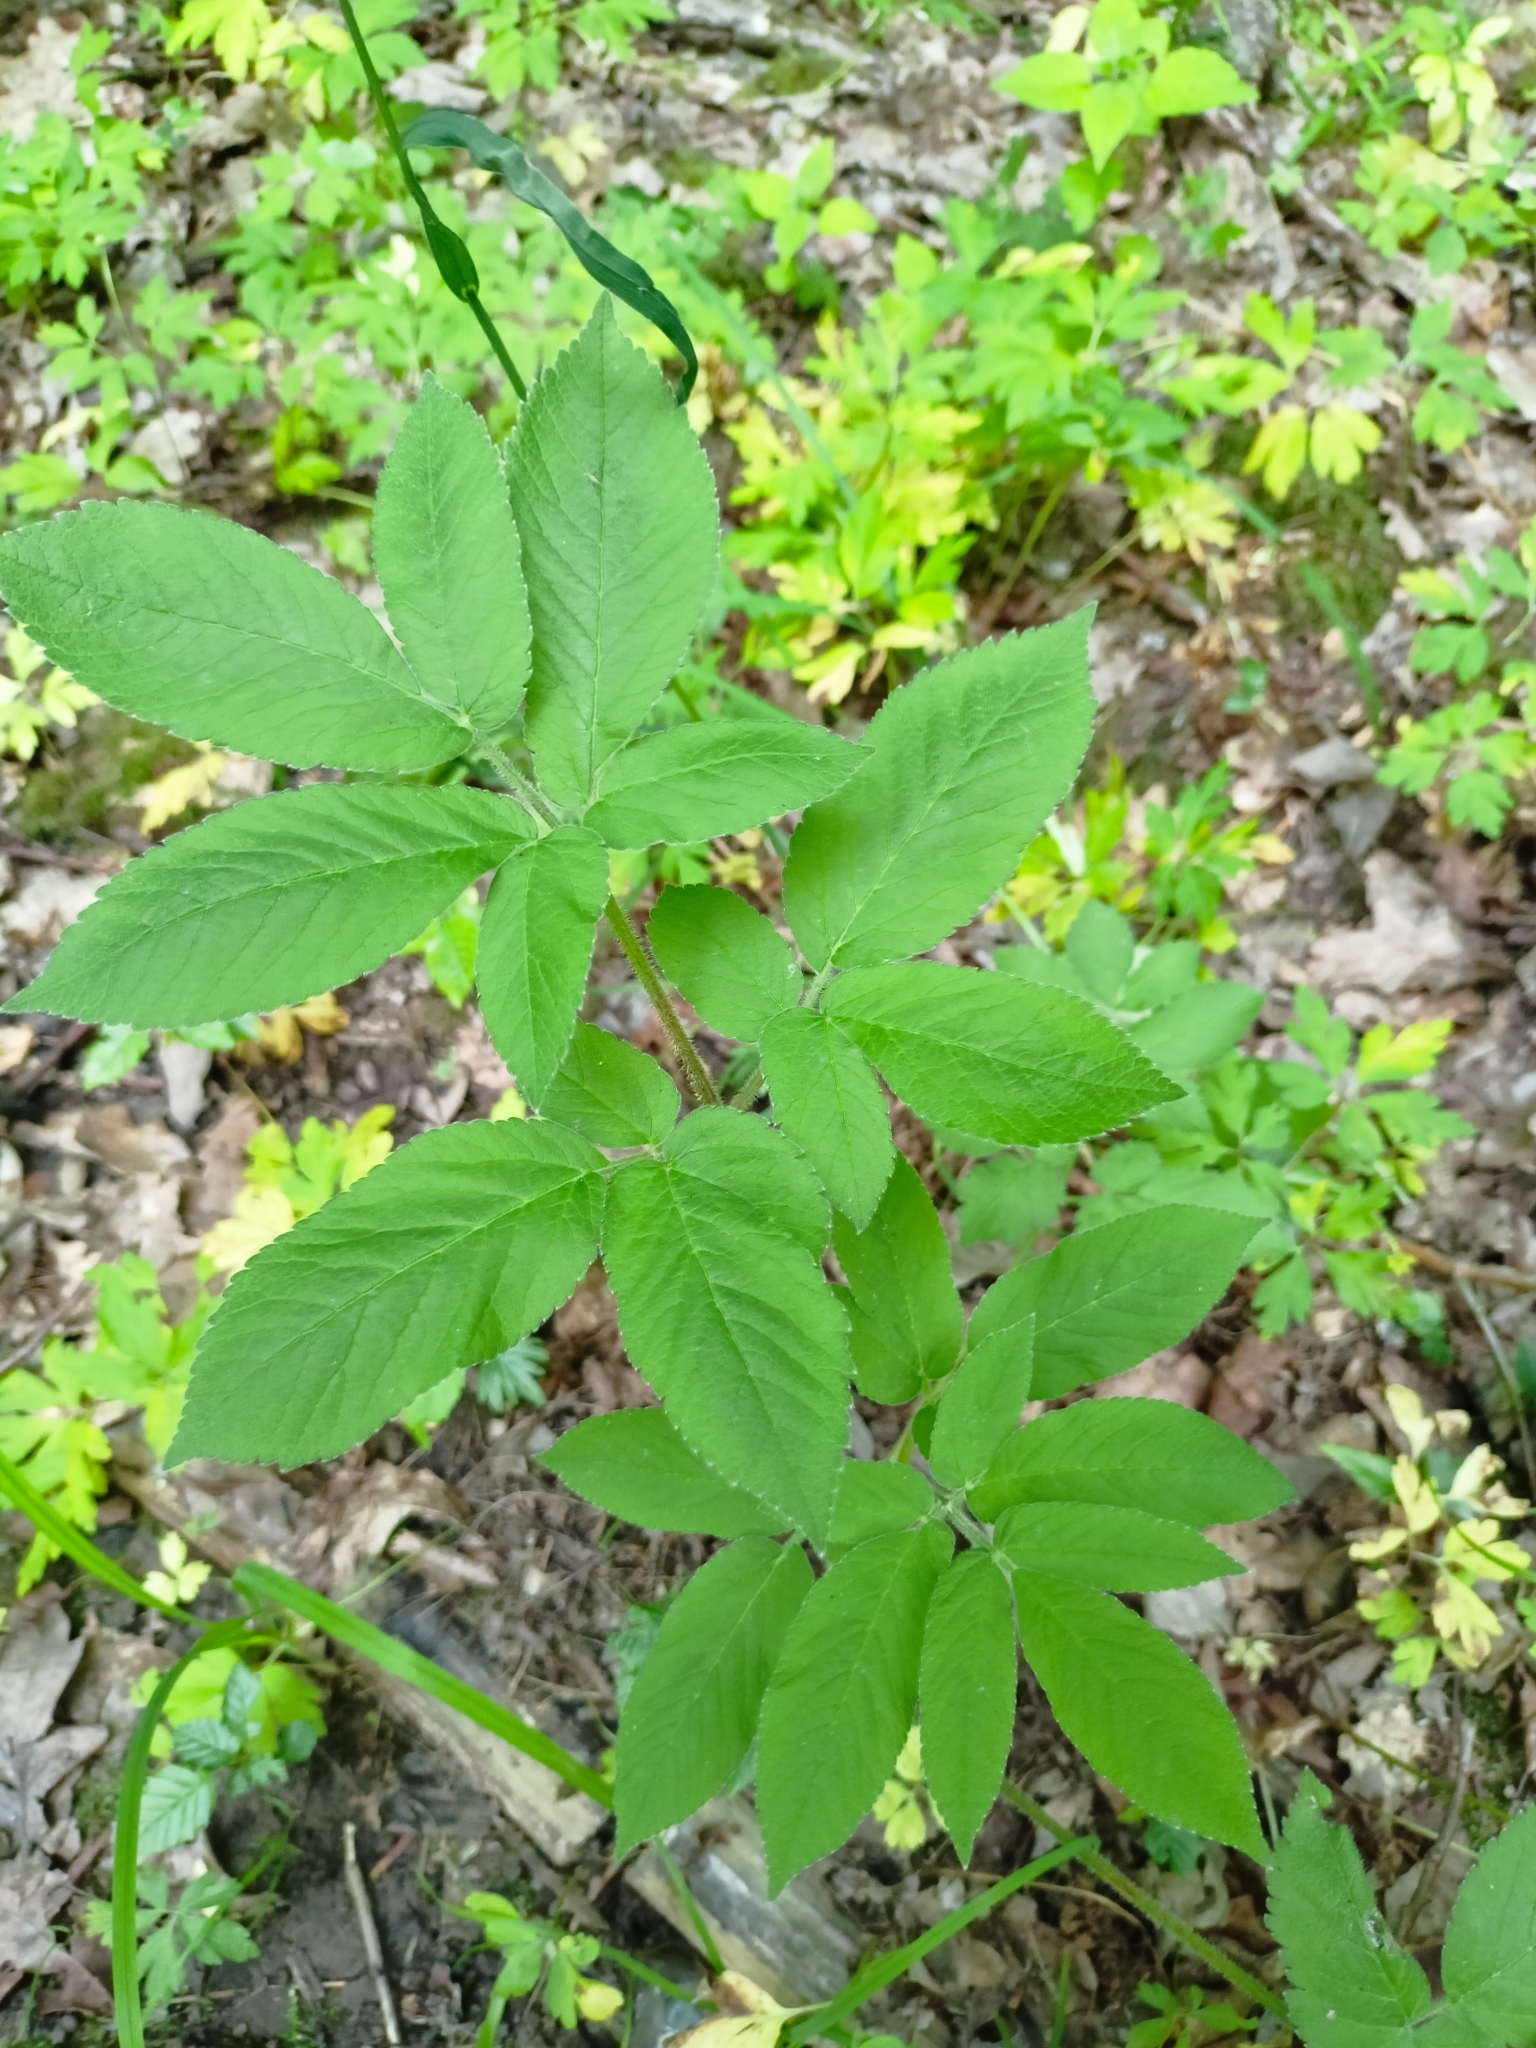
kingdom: Plantae
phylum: Tracheophyta
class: Magnoliopsida
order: Apiales
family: Apiaceae
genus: Chaerophyllum
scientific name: Chaerophyllum aromaticum
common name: Broadleaf chervil
